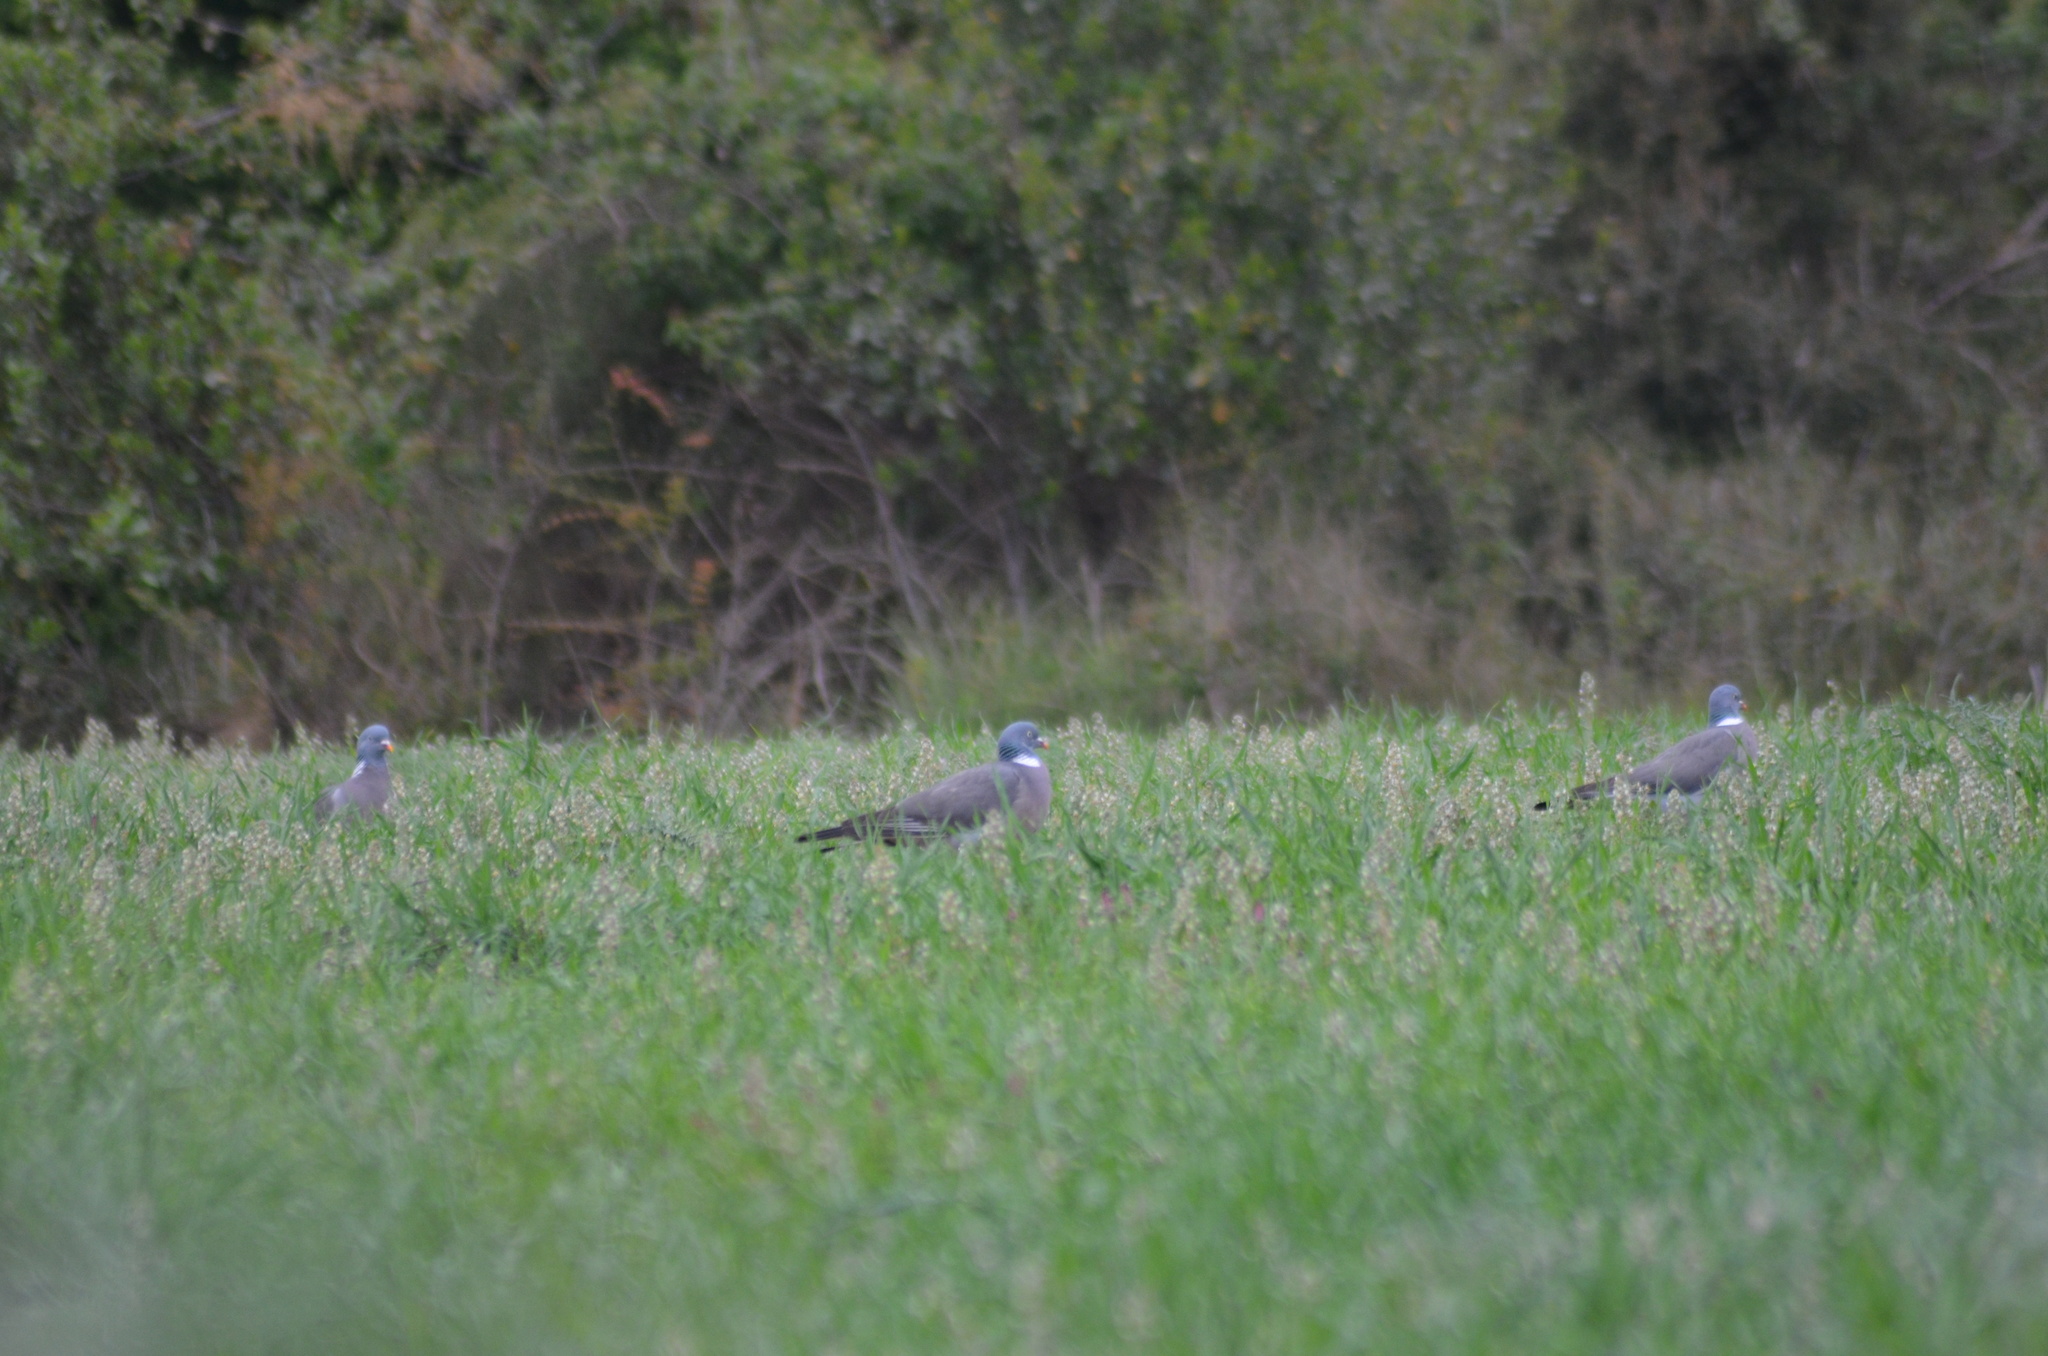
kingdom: Animalia
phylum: Chordata
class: Aves
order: Columbiformes
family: Columbidae
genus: Columba
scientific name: Columba palumbus
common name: Common wood pigeon
